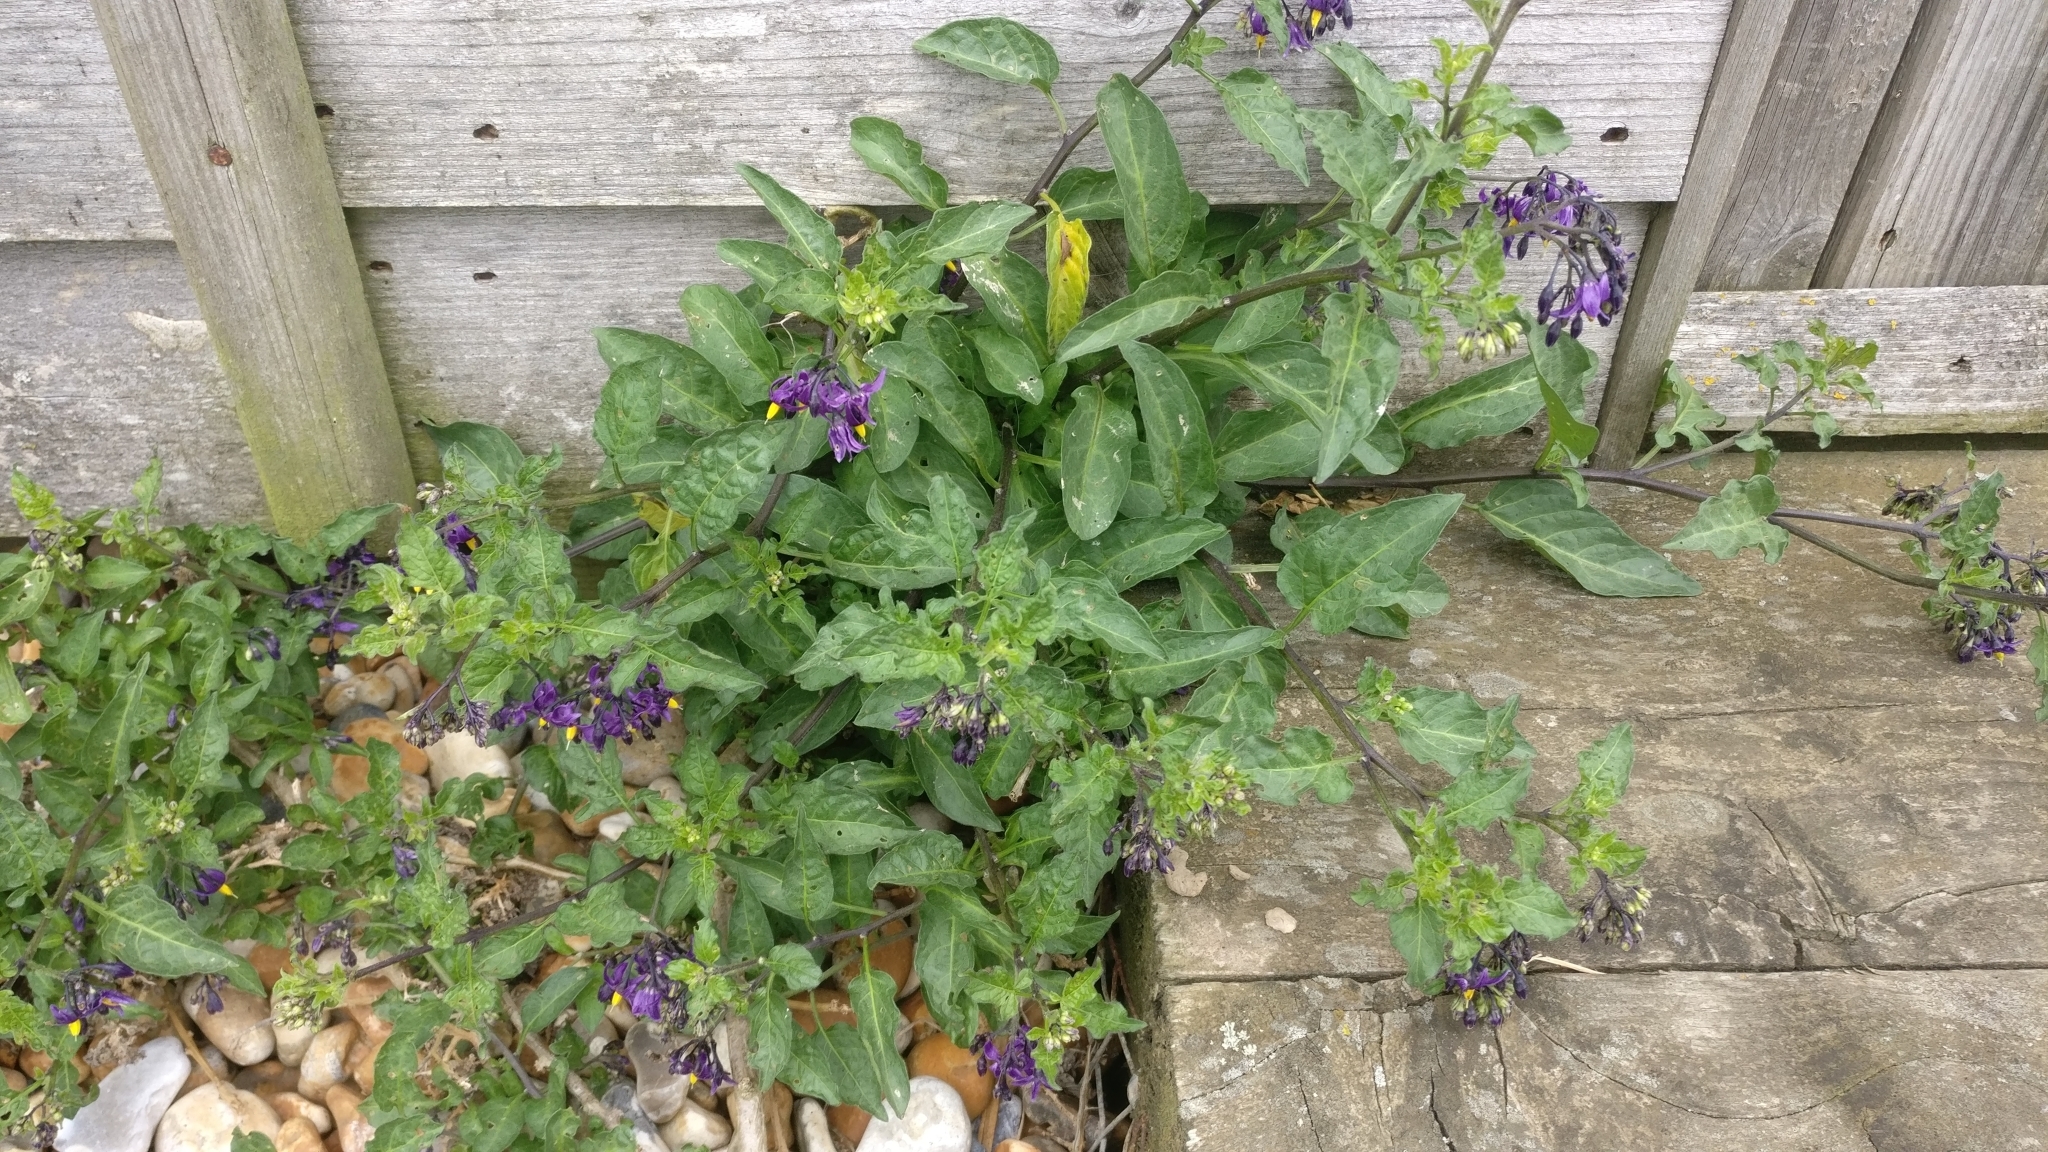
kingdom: Plantae
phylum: Tracheophyta
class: Magnoliopsida
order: Solanales
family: Solanaceae
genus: Solanum
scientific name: Solanum dulcamara
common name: Climbing nightshade
